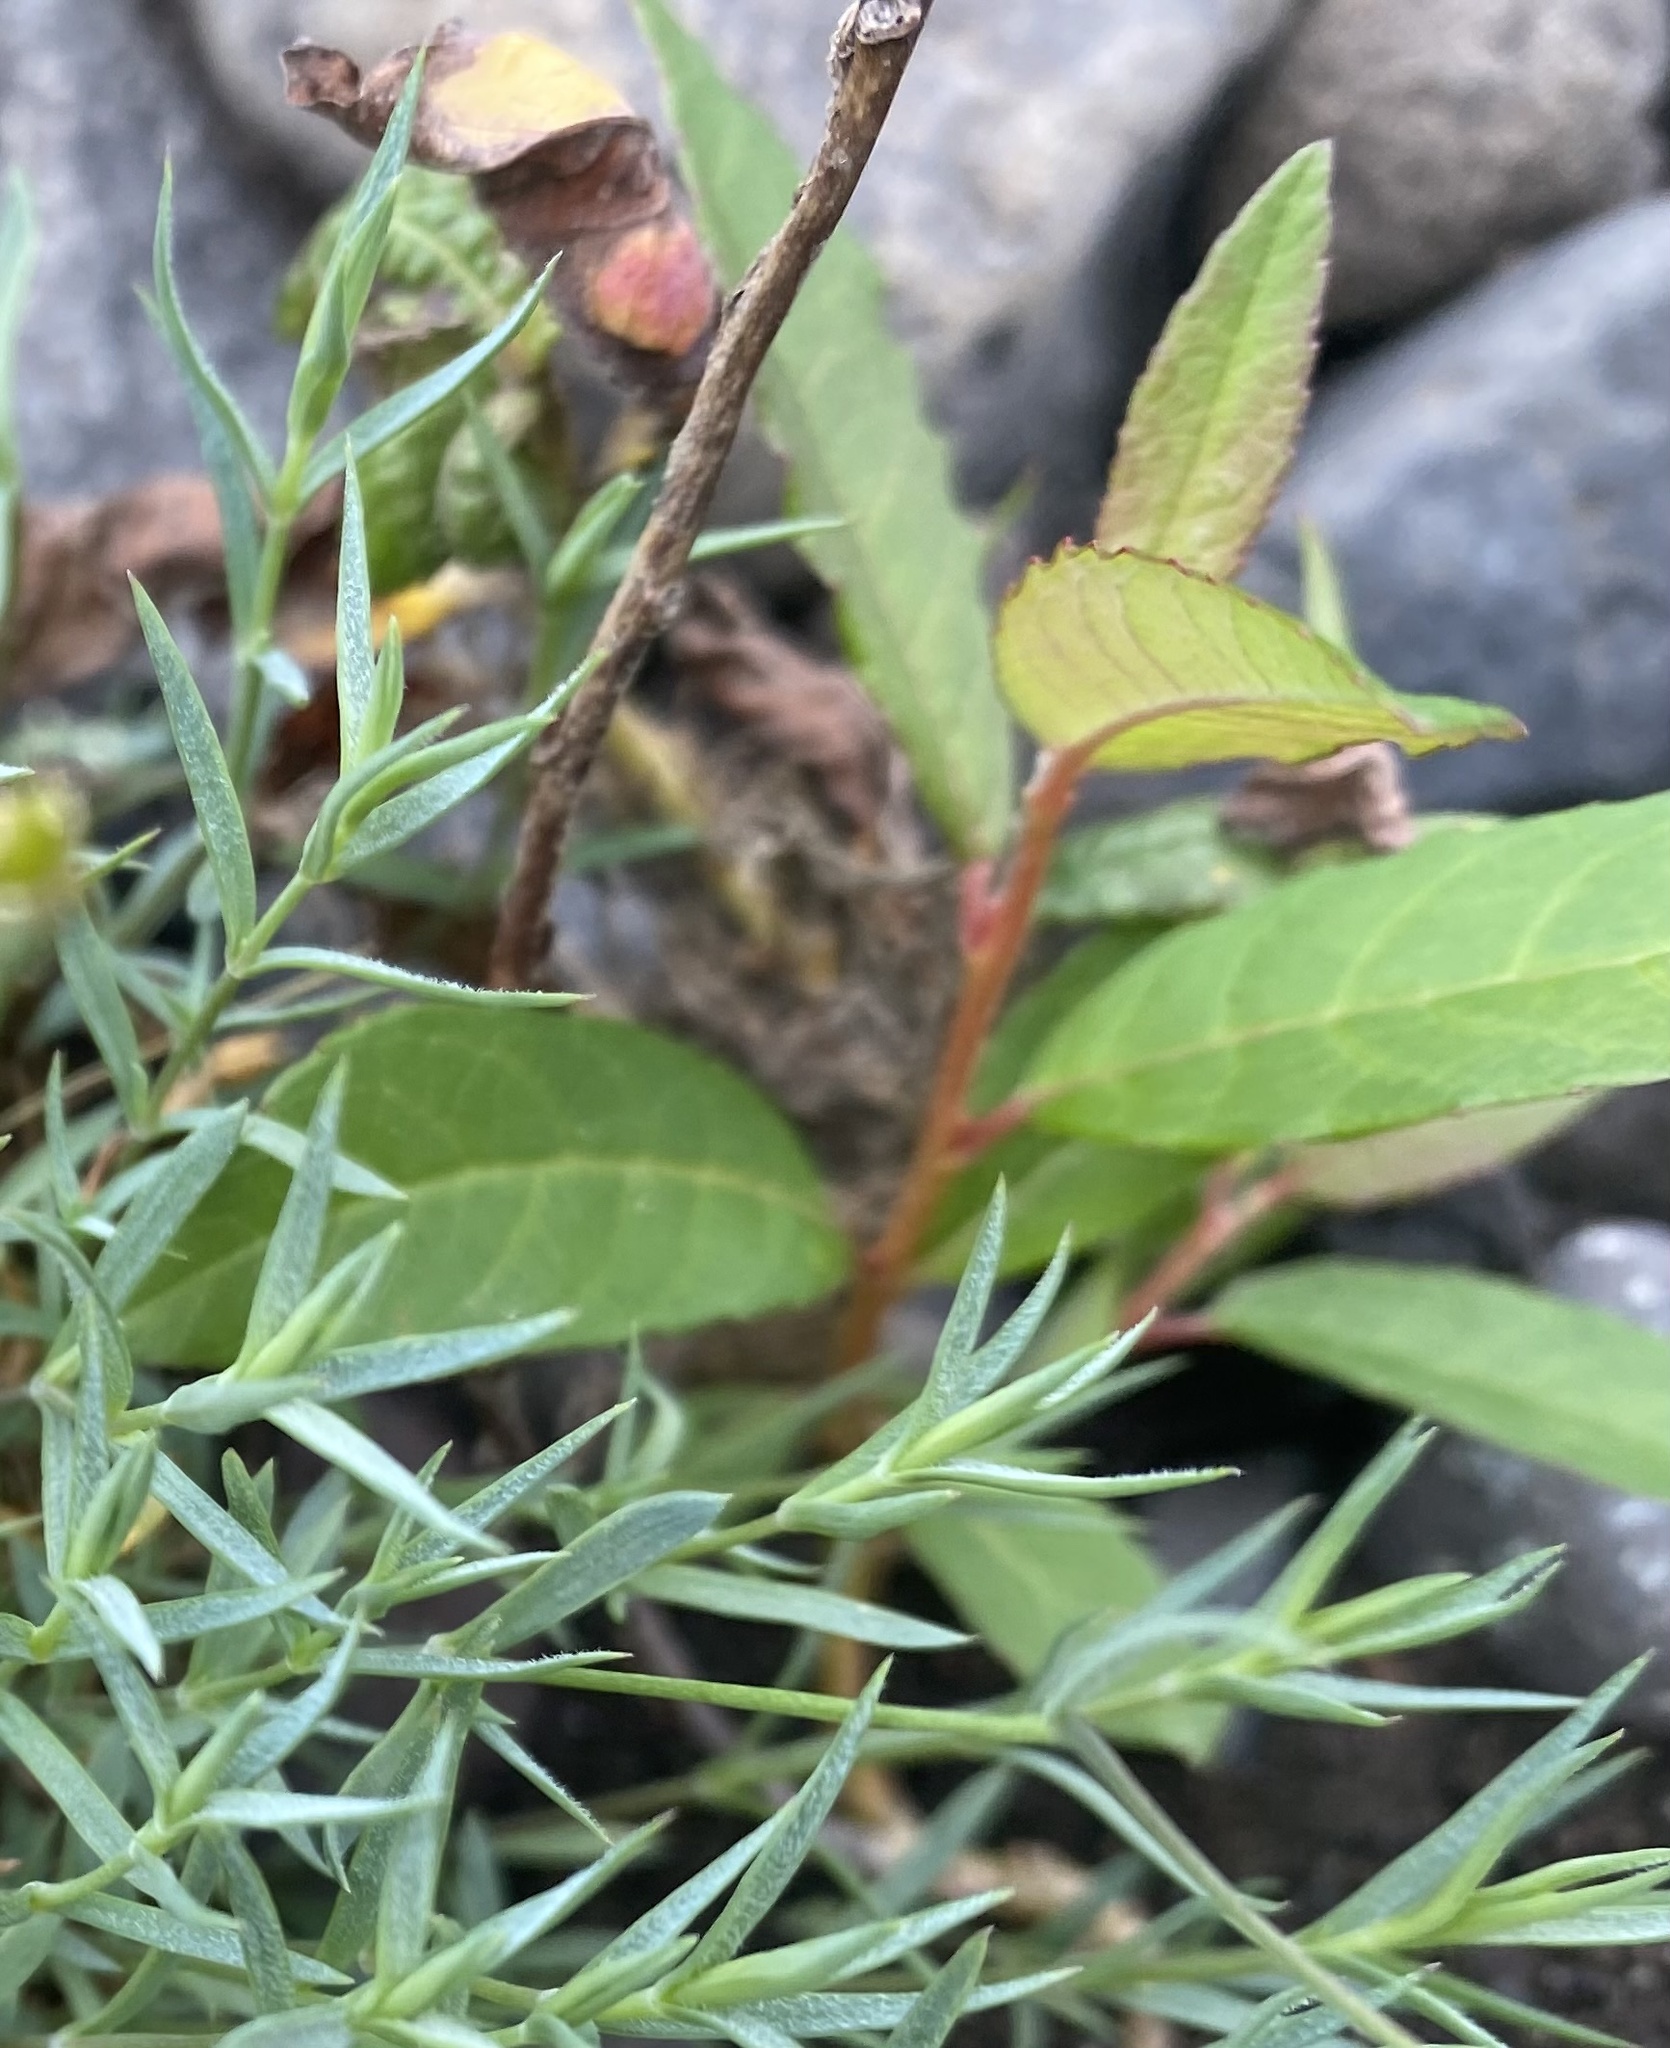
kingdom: Plantae
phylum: Tracheophyta
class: Magnoliopsida
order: Malpighiales
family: Salicaceae
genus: Salix
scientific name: Salix hastata
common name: Halberd willow
